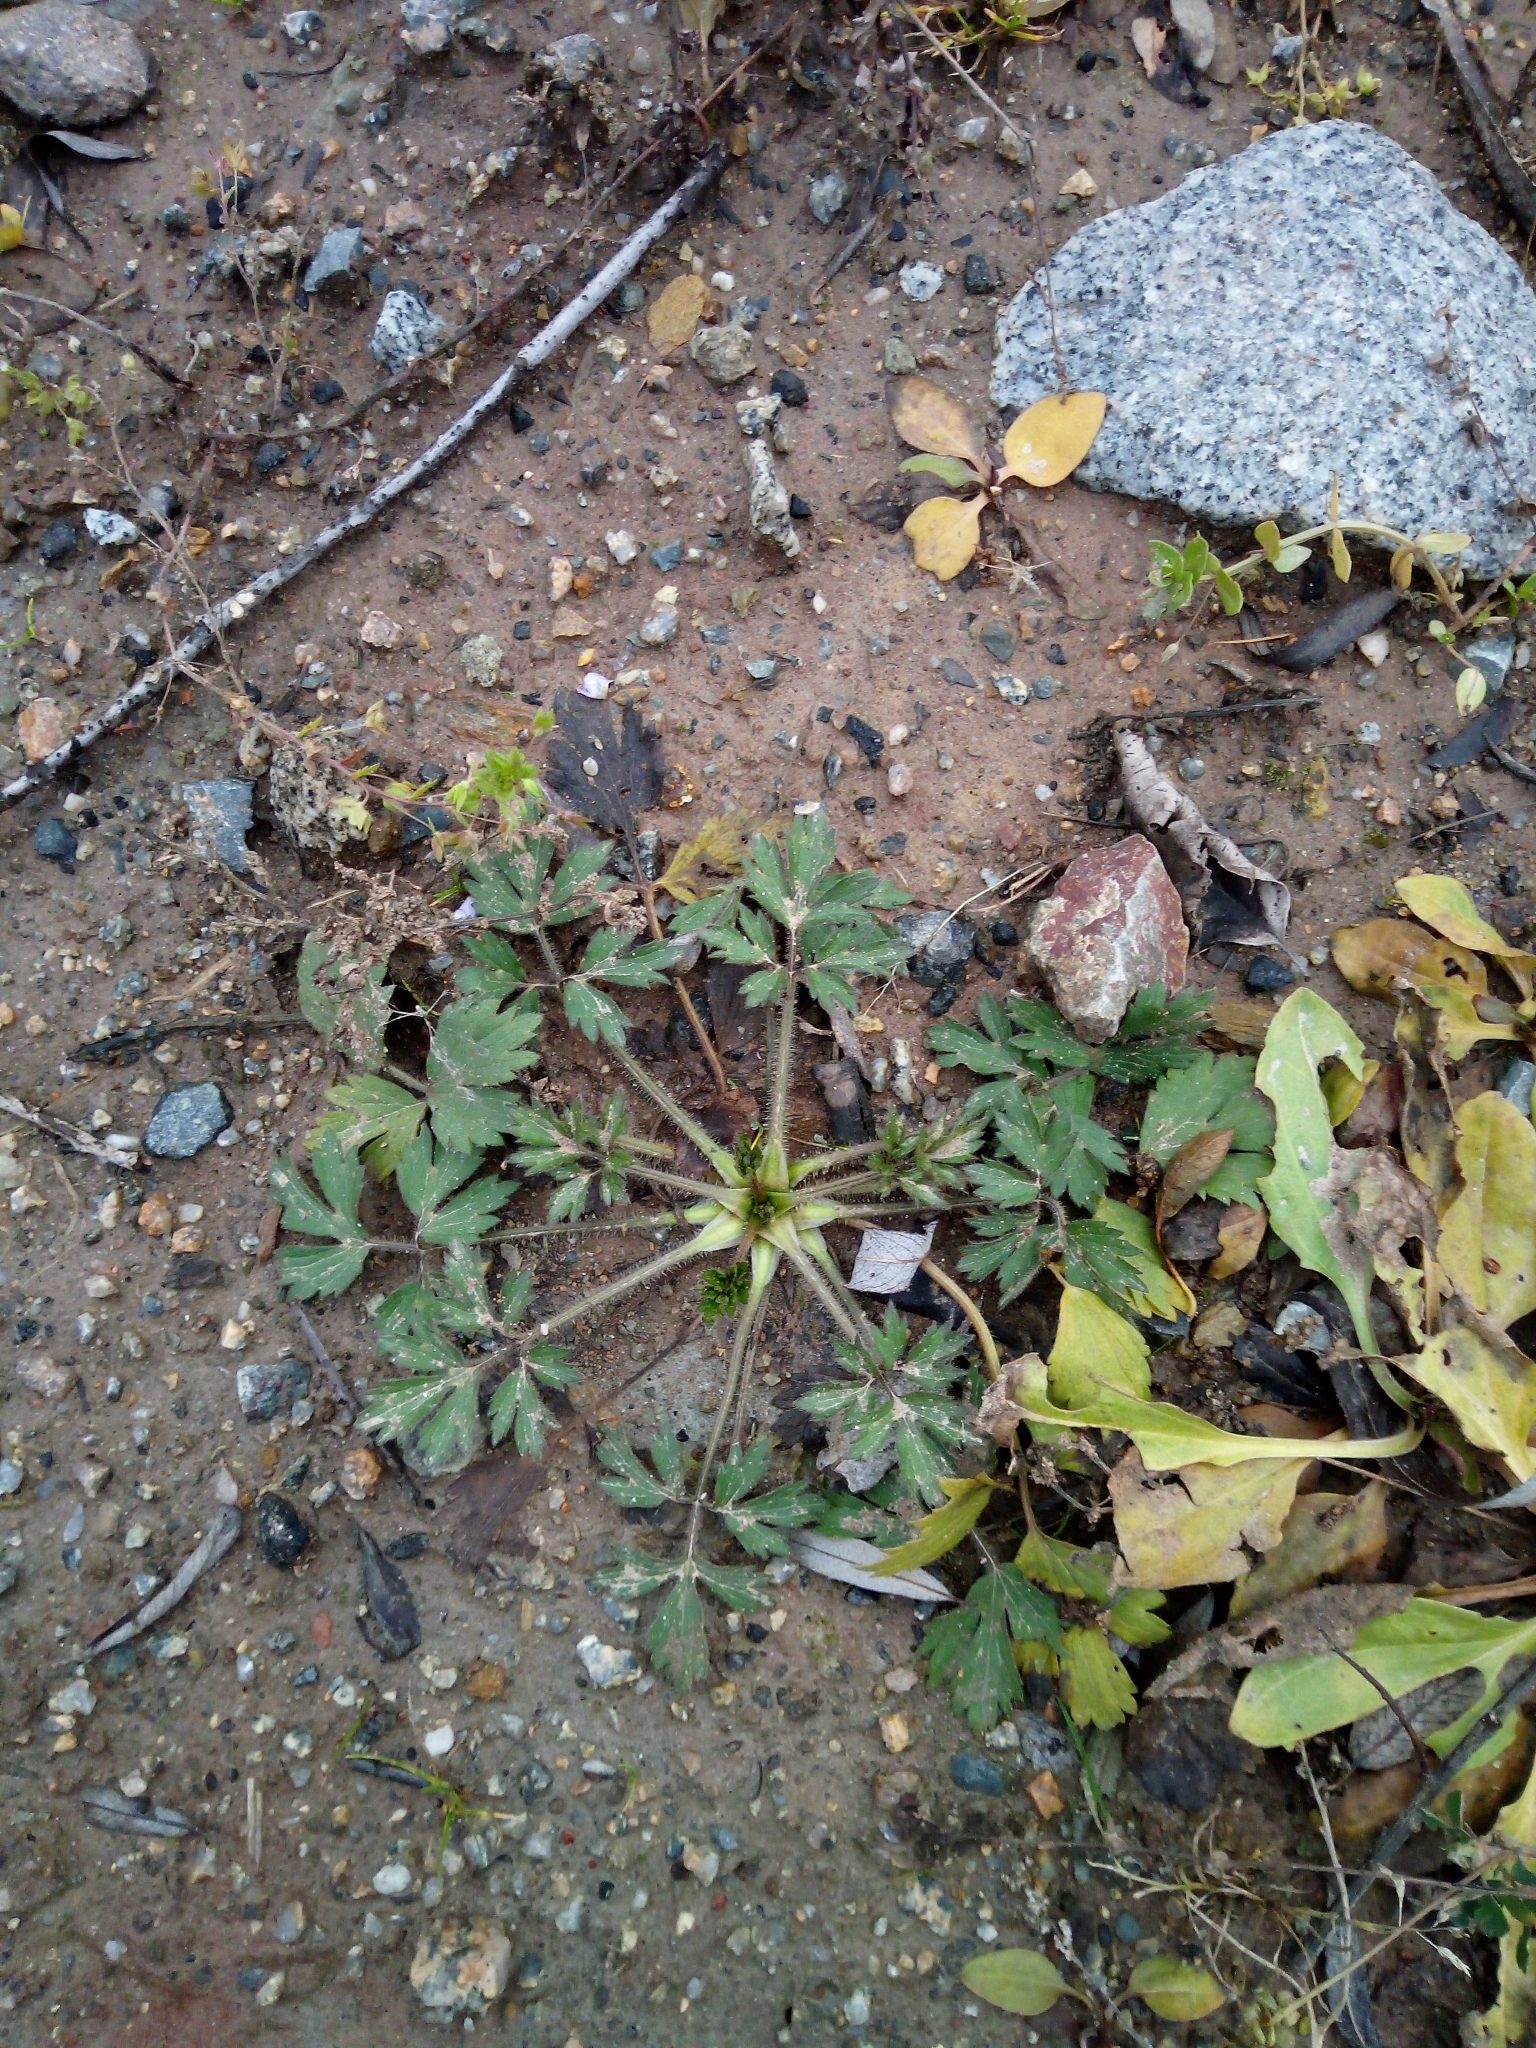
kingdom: Plantae
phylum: Tracheophyta
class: Magnoliopsida
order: Ranunculales
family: Ranunculaceae
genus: Ranunculus
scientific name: Ranunculus repens
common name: Creeping buttercup
